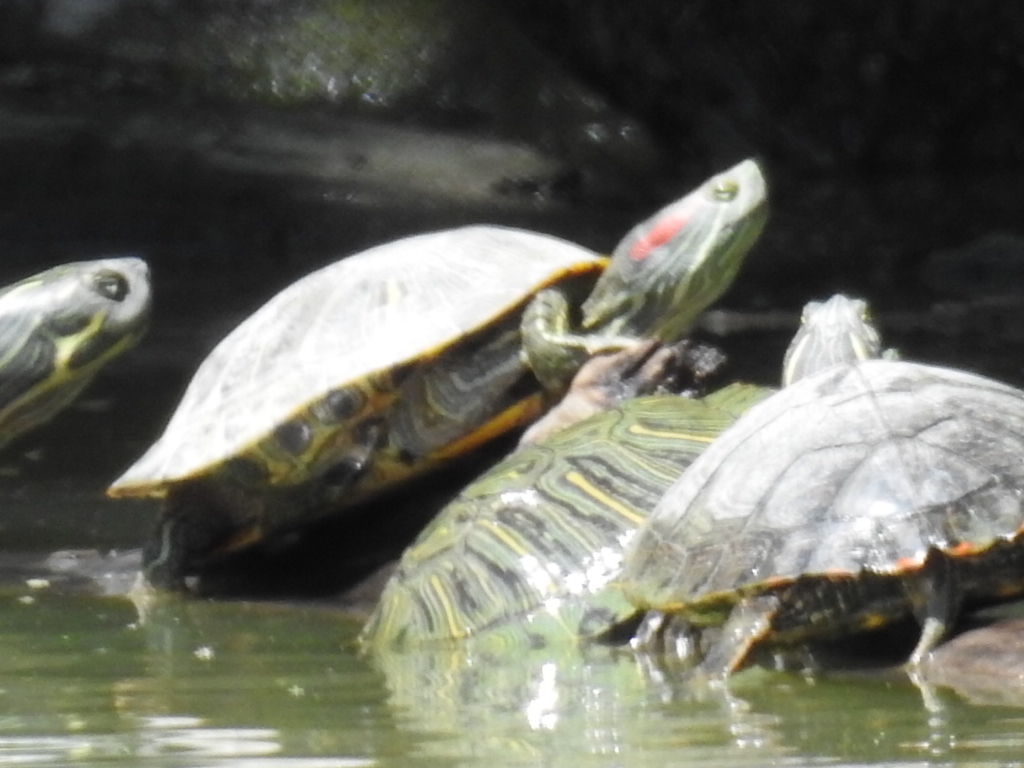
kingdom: Animalia
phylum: Chordata
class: Testudines
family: Emydidae
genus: Trachemys
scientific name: Trachemys scripta
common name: Slider
